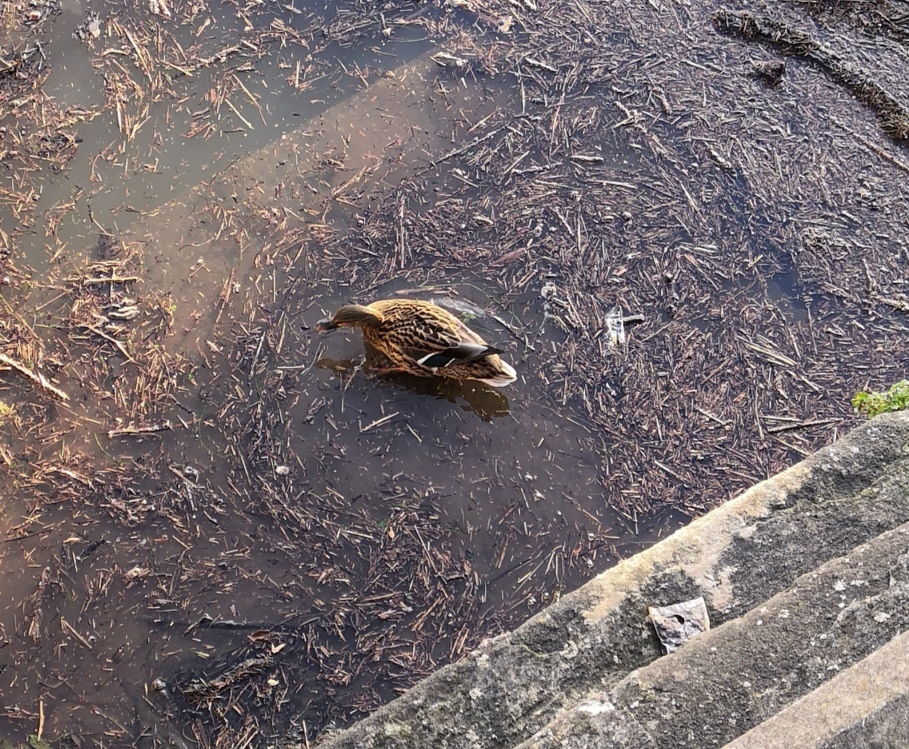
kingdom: Animalia
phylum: Chordata
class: Aves
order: Anseriformes
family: Anatidae
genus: Anas
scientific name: Anas platyrhynchos
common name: Mallard
